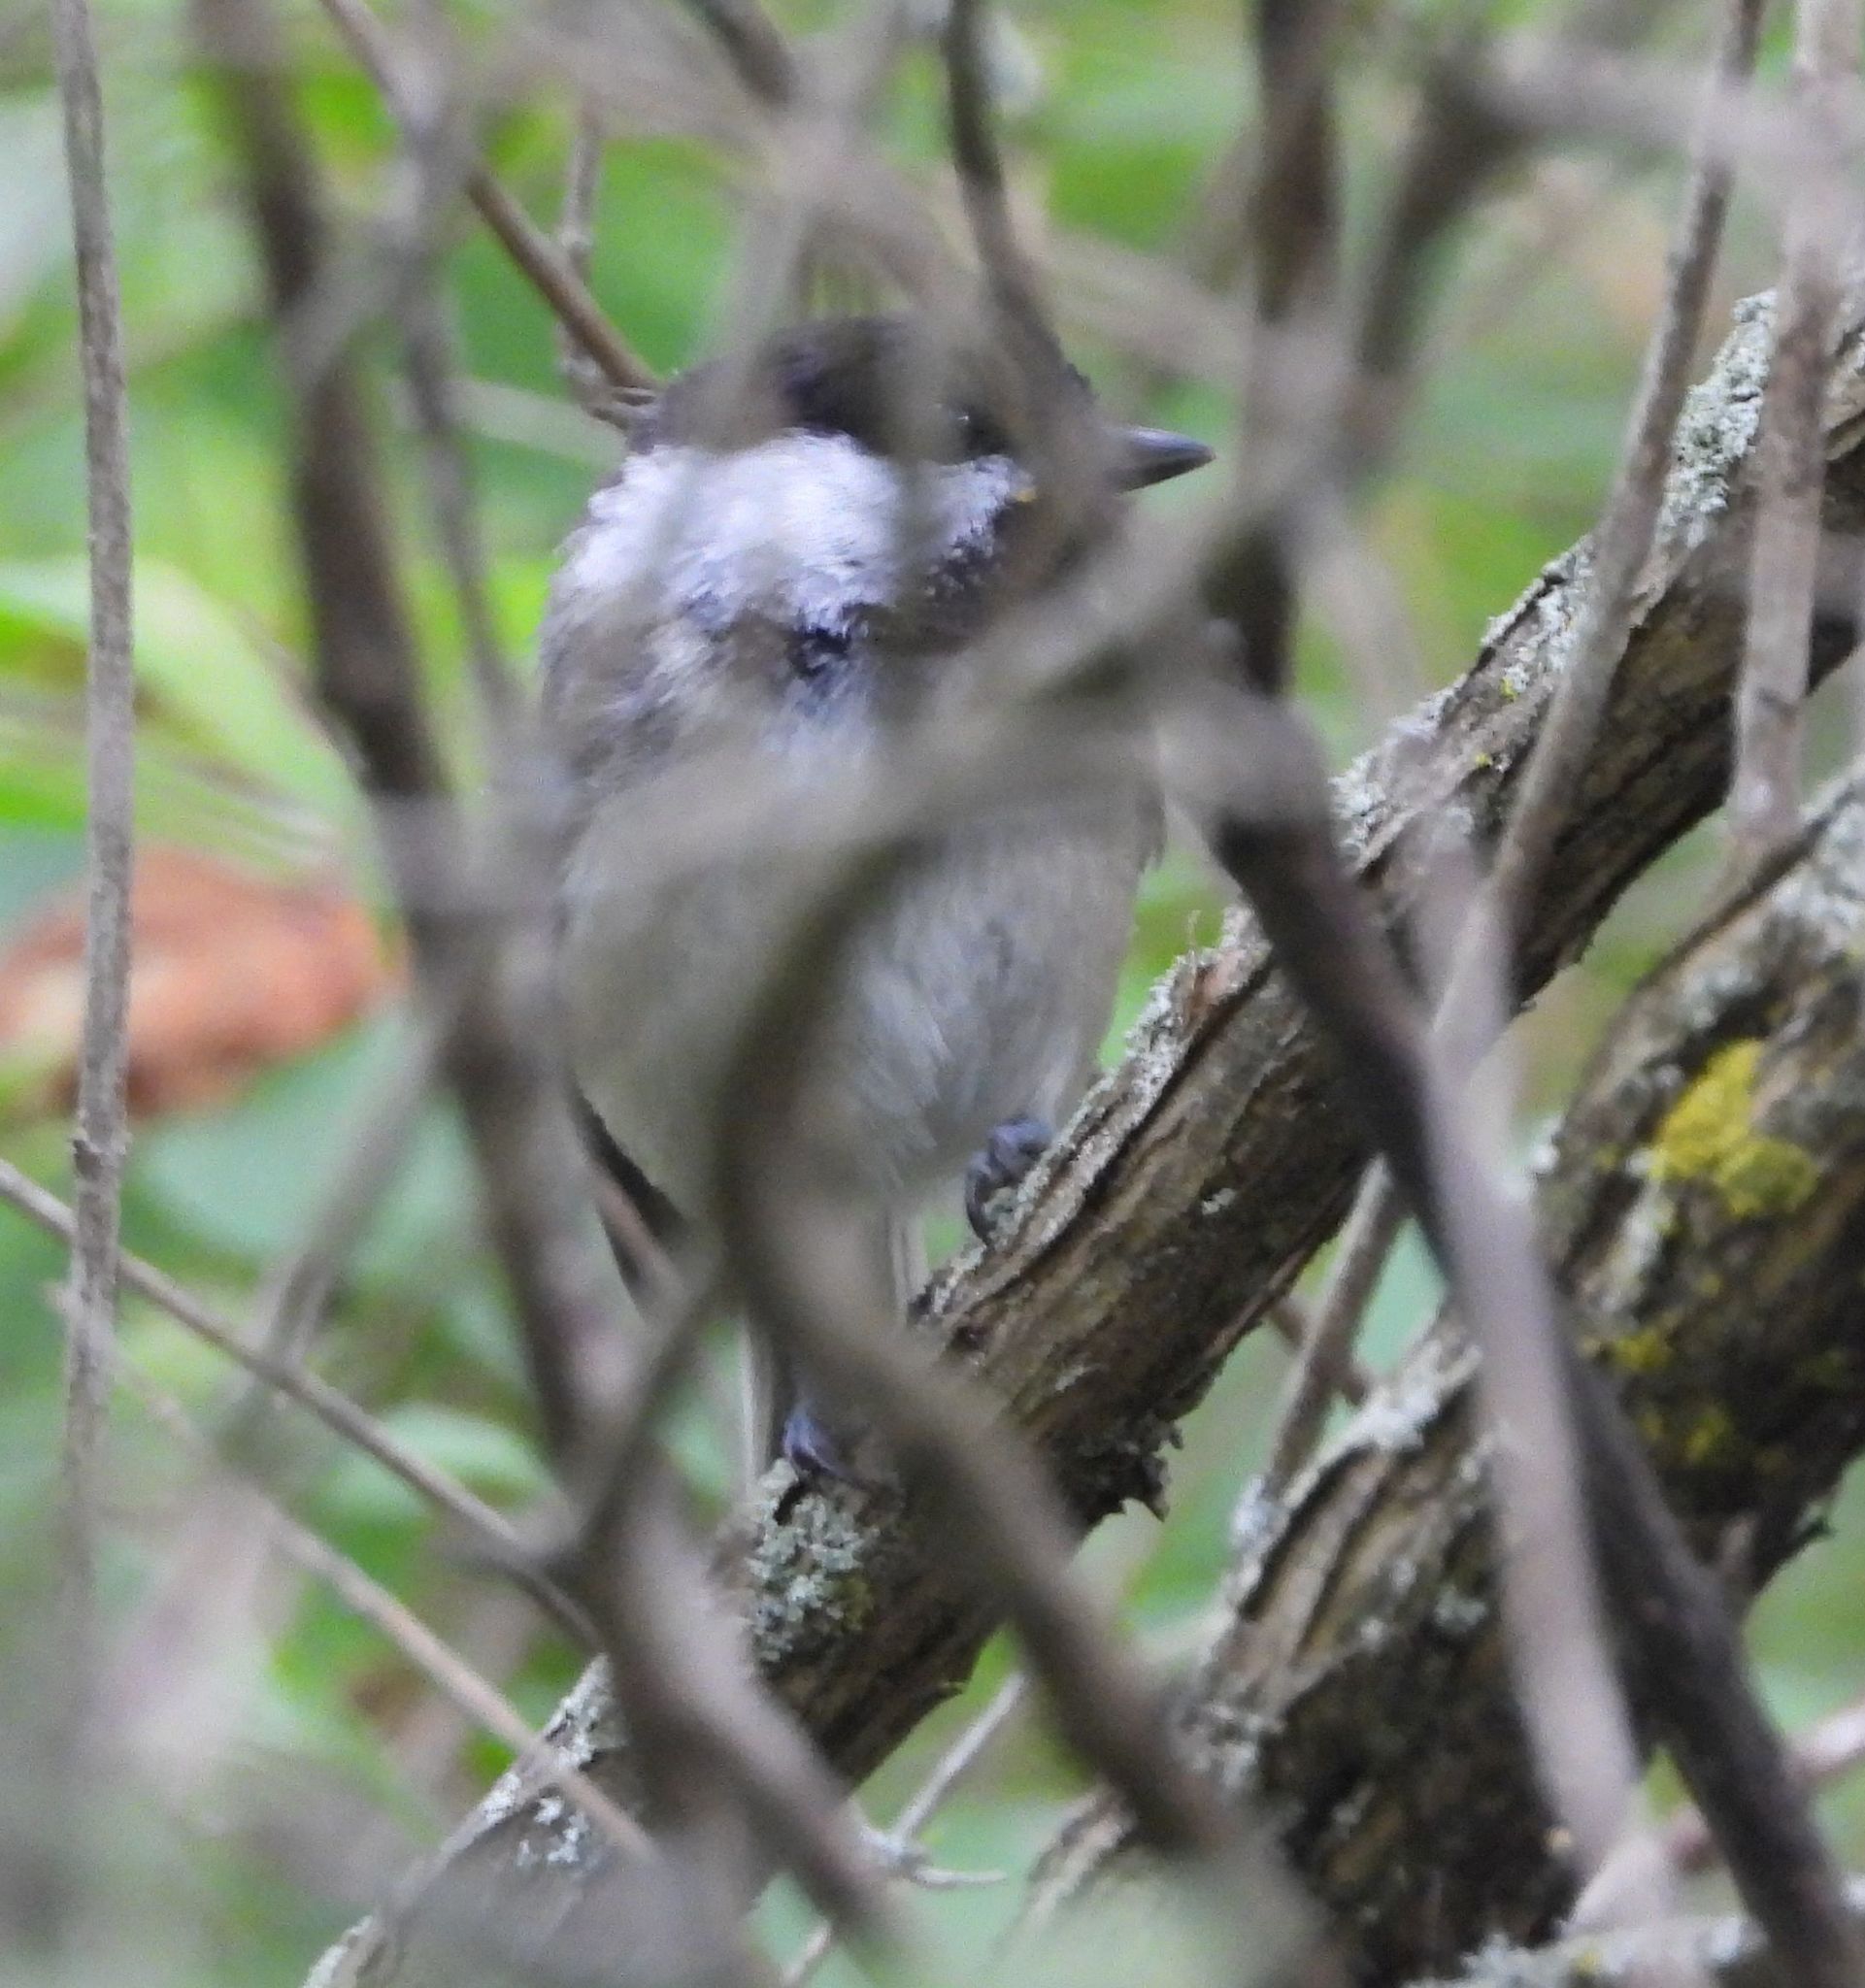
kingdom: Animalia
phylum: Chordata
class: Aves
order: Passeriformes
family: Paridae
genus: Poecile
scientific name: Poecile atricapillus
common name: Black-capped chickadee
